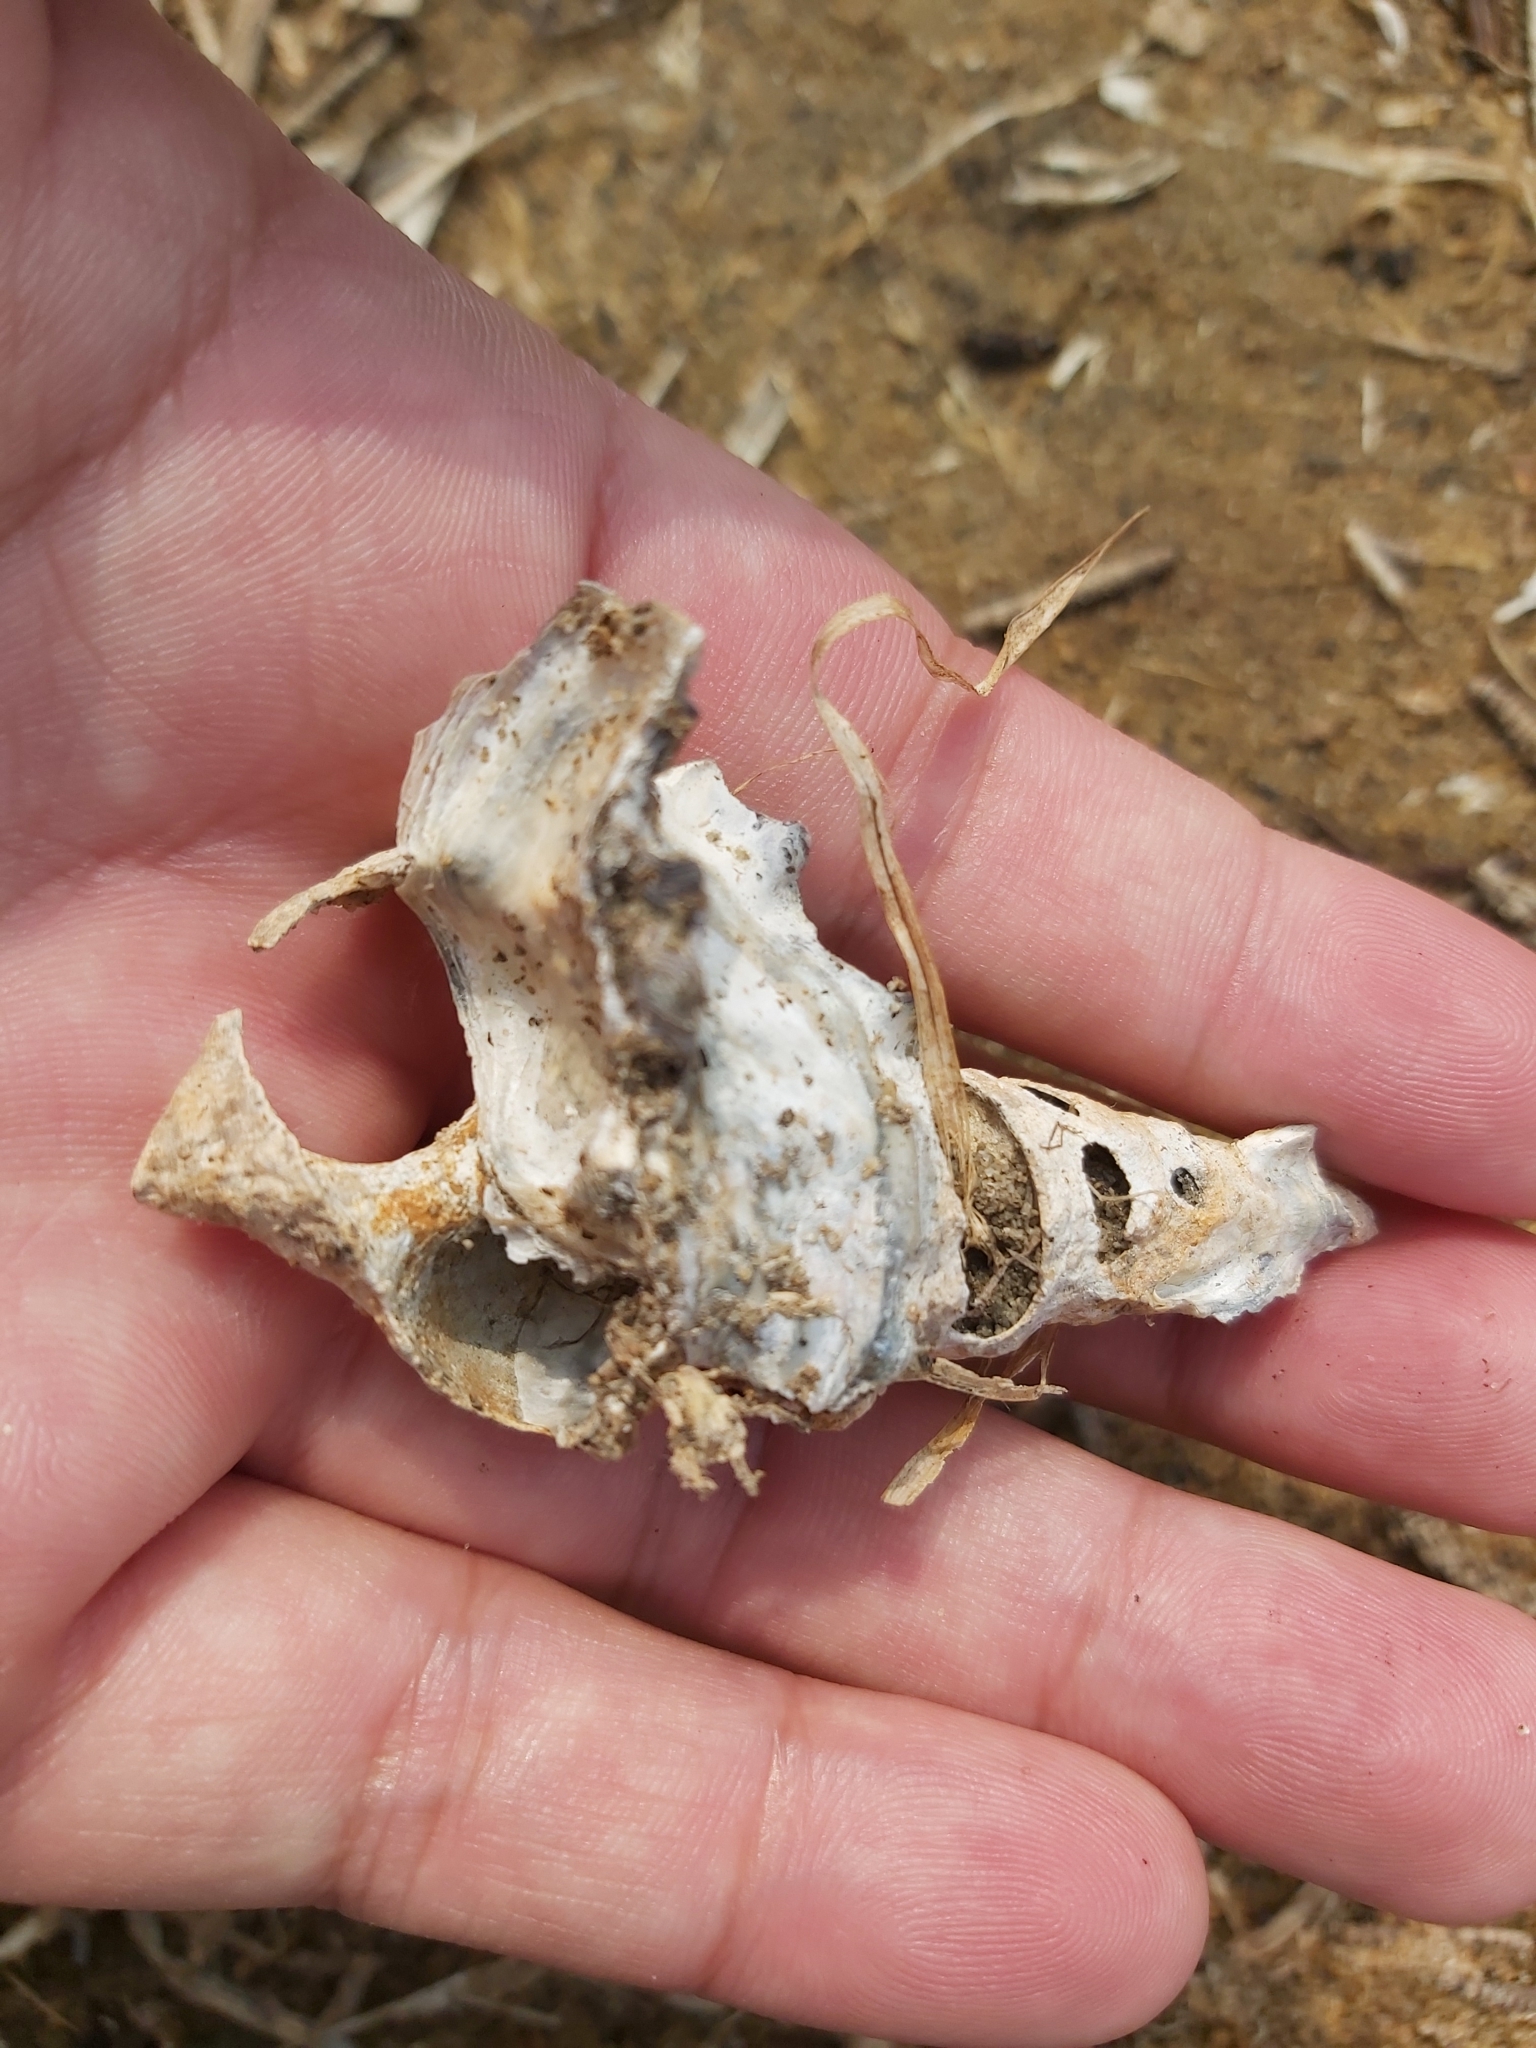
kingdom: Animalia
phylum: Mollusca
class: Gastropoda
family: Batillariidae
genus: Pyrazus
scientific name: Pyrazus ebeninus
